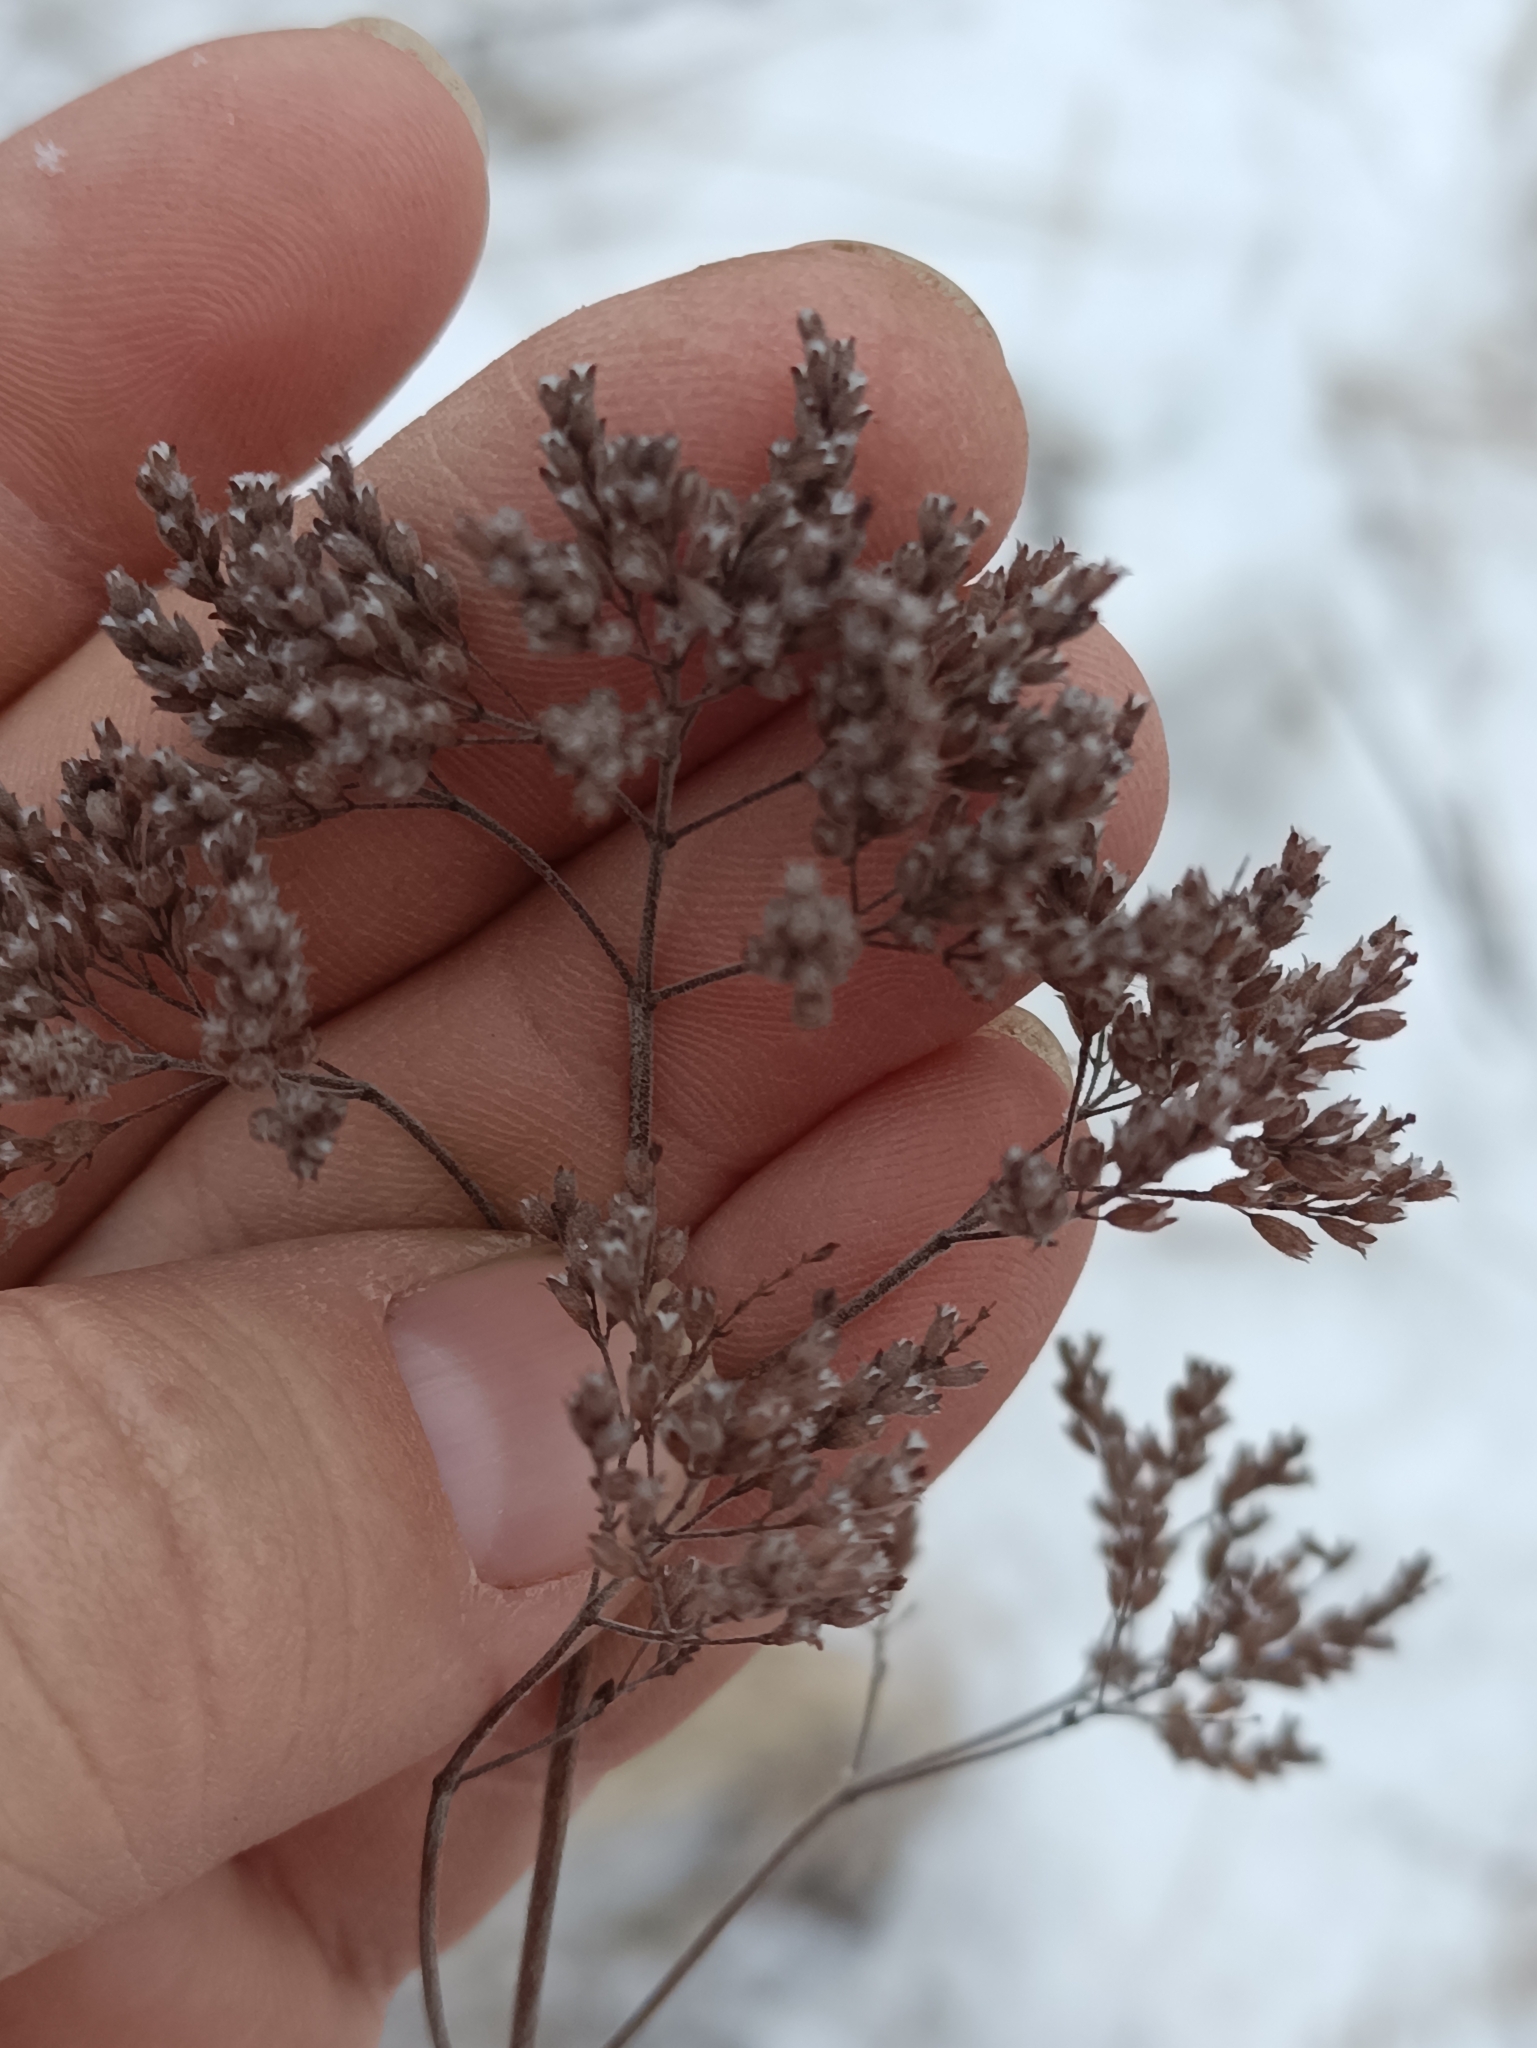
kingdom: Plantae
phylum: Tracheophyta
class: Magnoliopsida
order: Lamiales
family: Lamiaceae
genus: Origanum
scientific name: Origanum vulgare
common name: Wild marjoram
